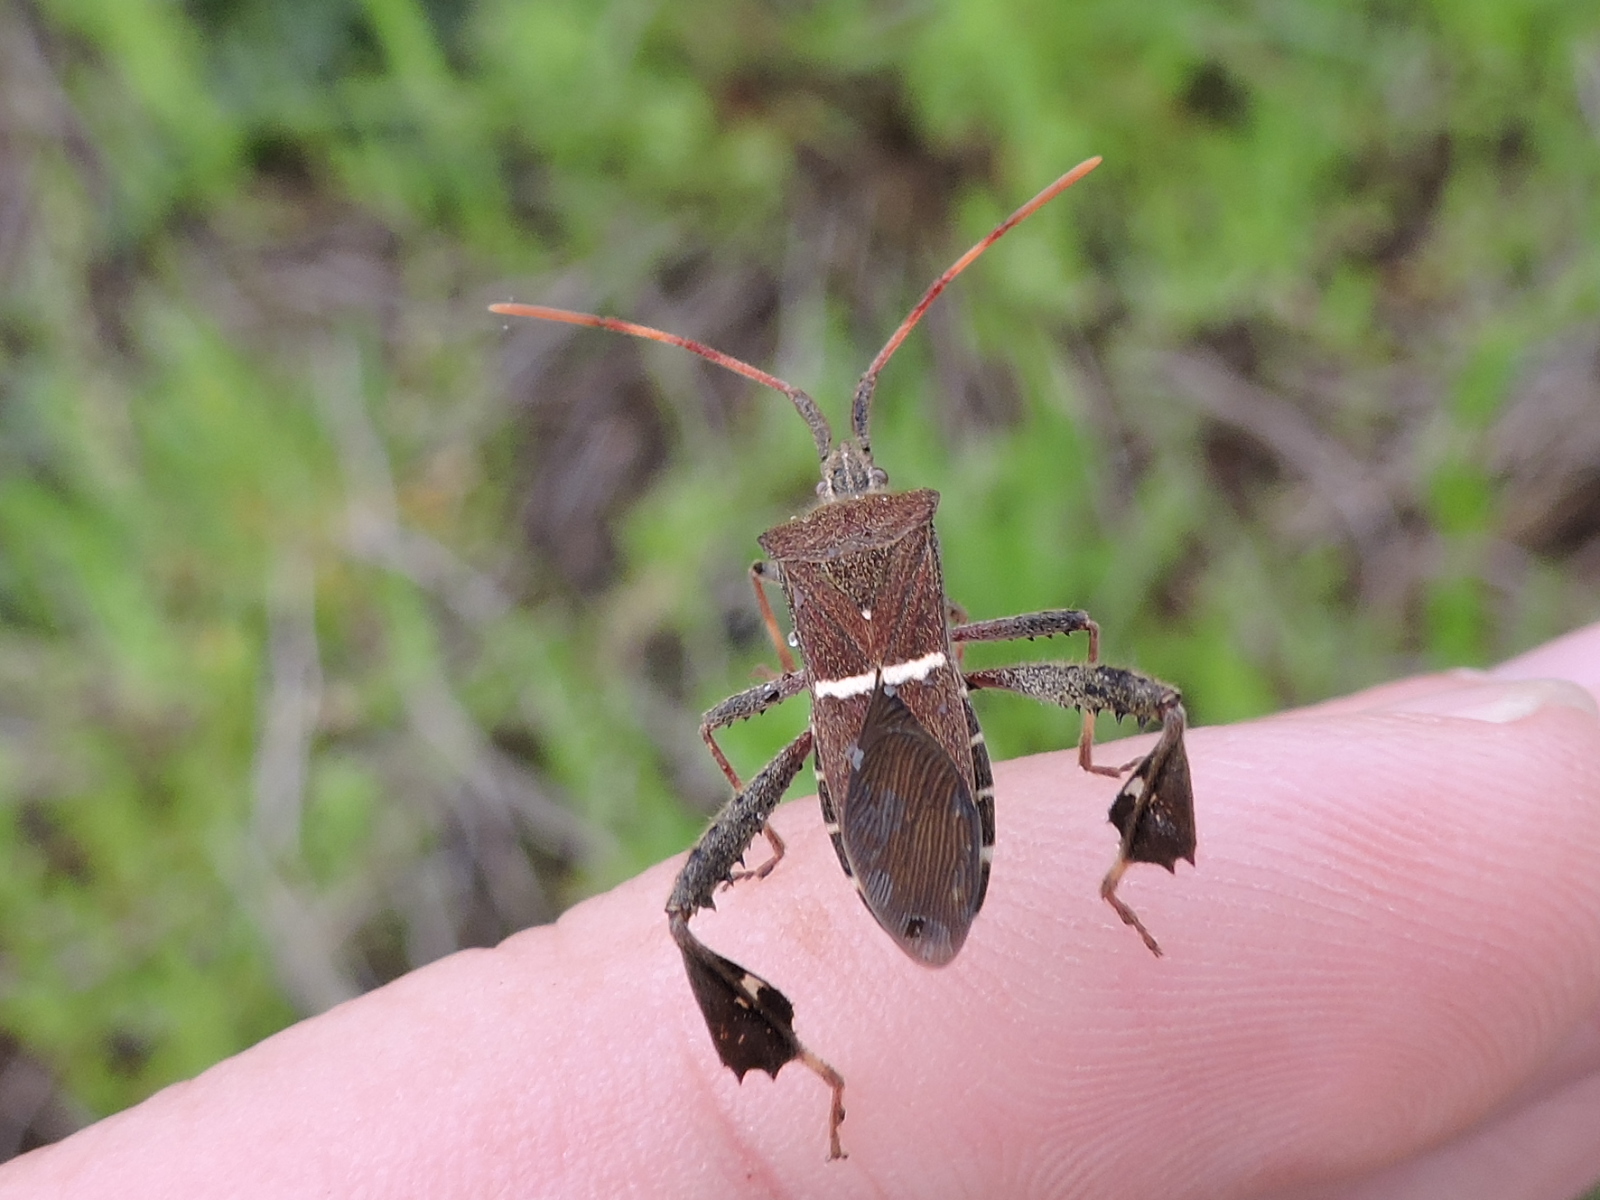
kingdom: Animalia
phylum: Arthropoda
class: Insecta
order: Hemiptera
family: Coreidae
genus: Leptoglossus
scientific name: Leptoglossus phyllopus
